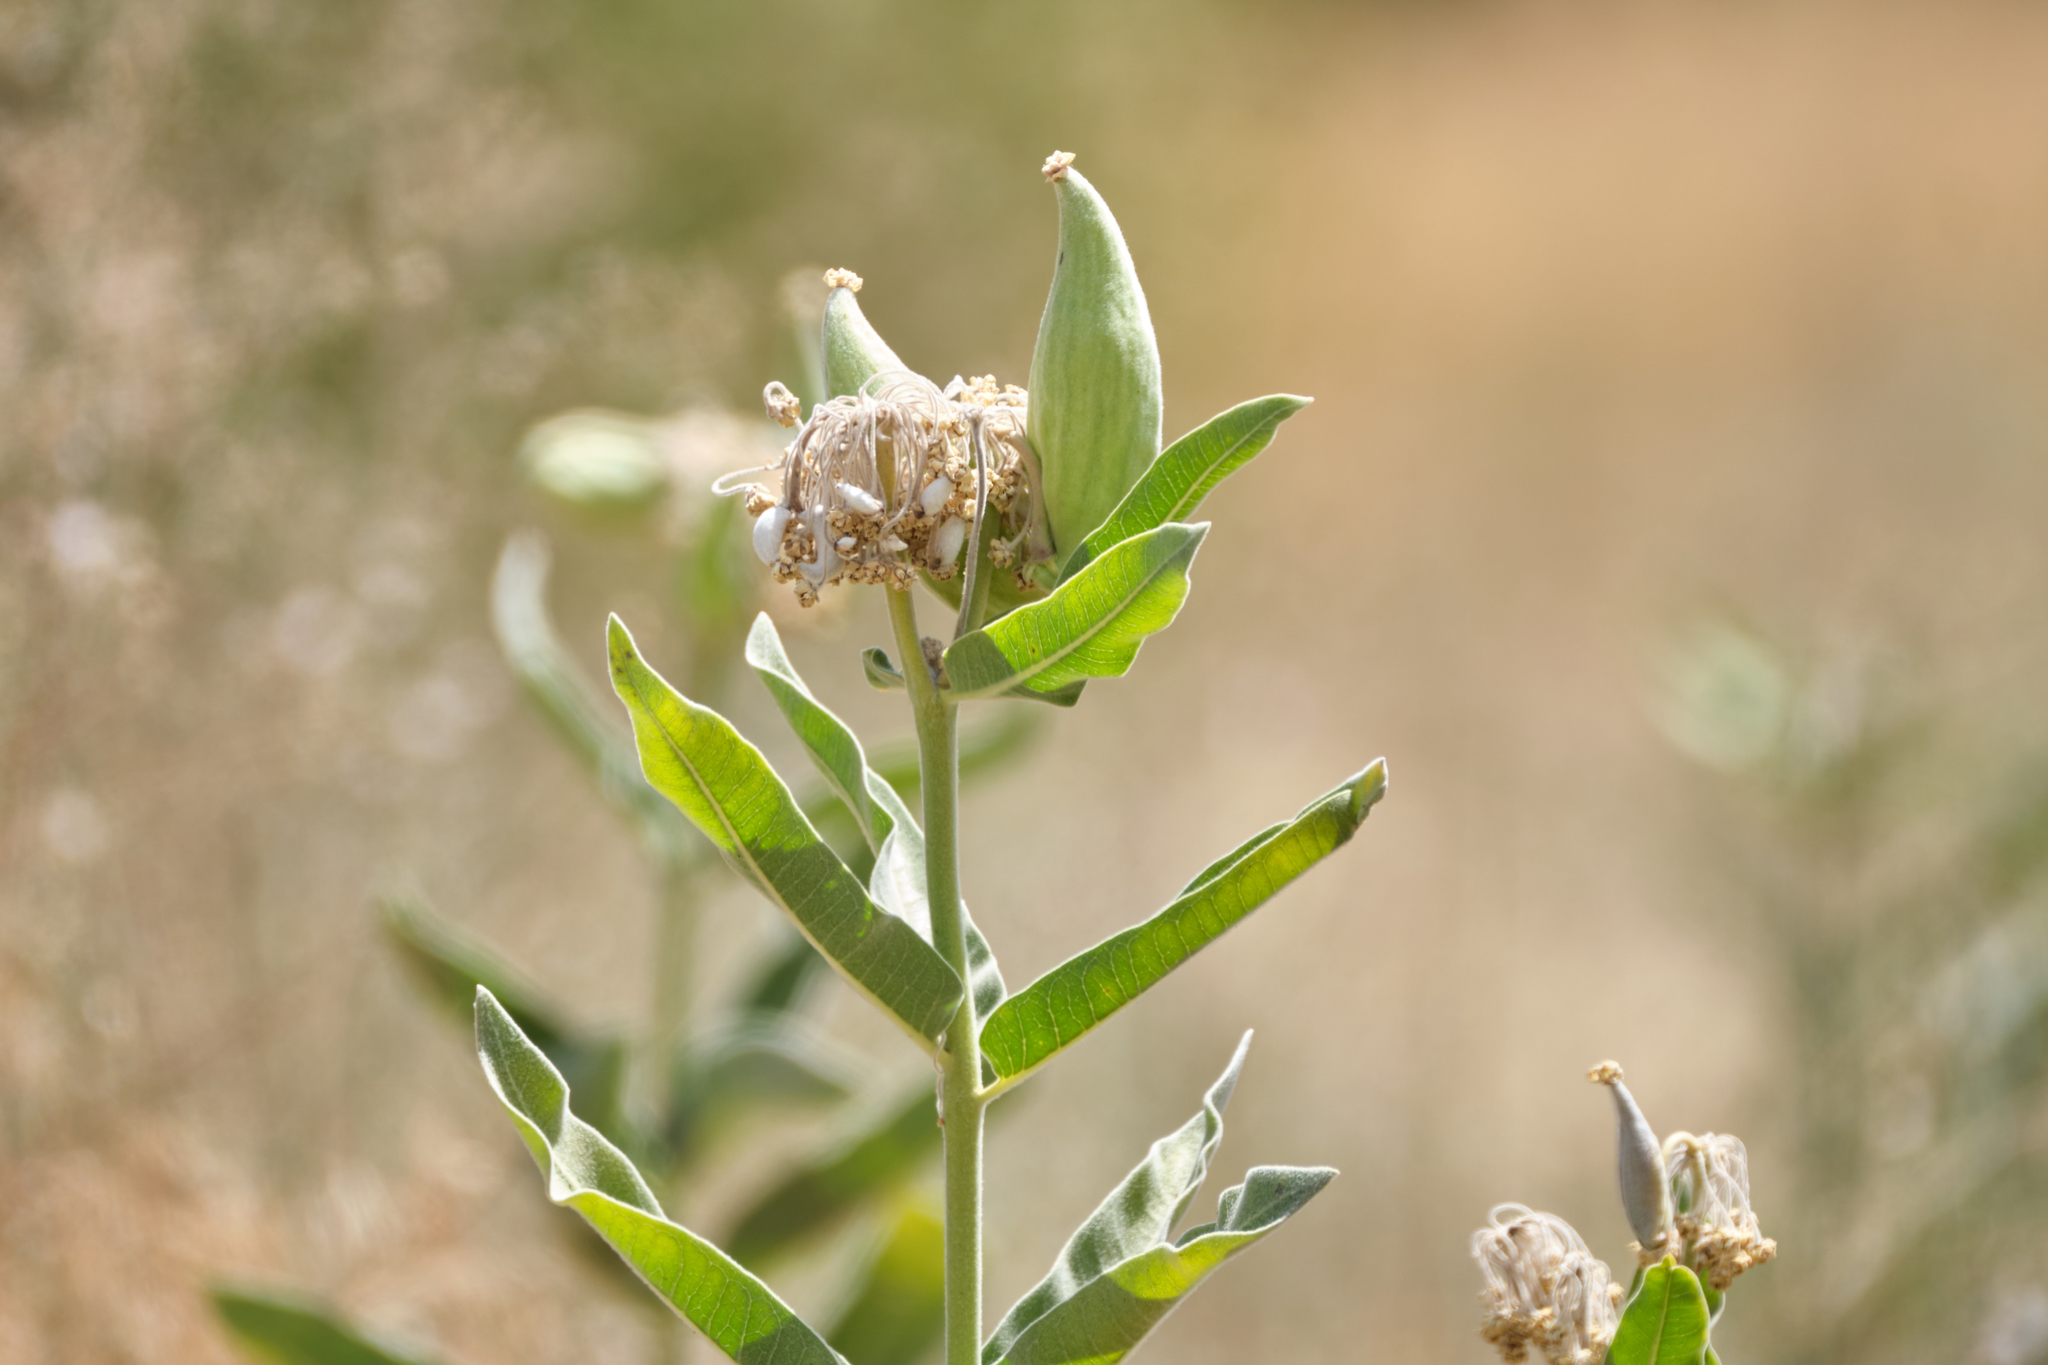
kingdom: Plantae
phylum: Tracheophyta
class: Magnoliopsida
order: Gentianales
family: Apocynaceae
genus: Asclepias
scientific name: Asclepias eriocarpa
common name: Indian milkweed
